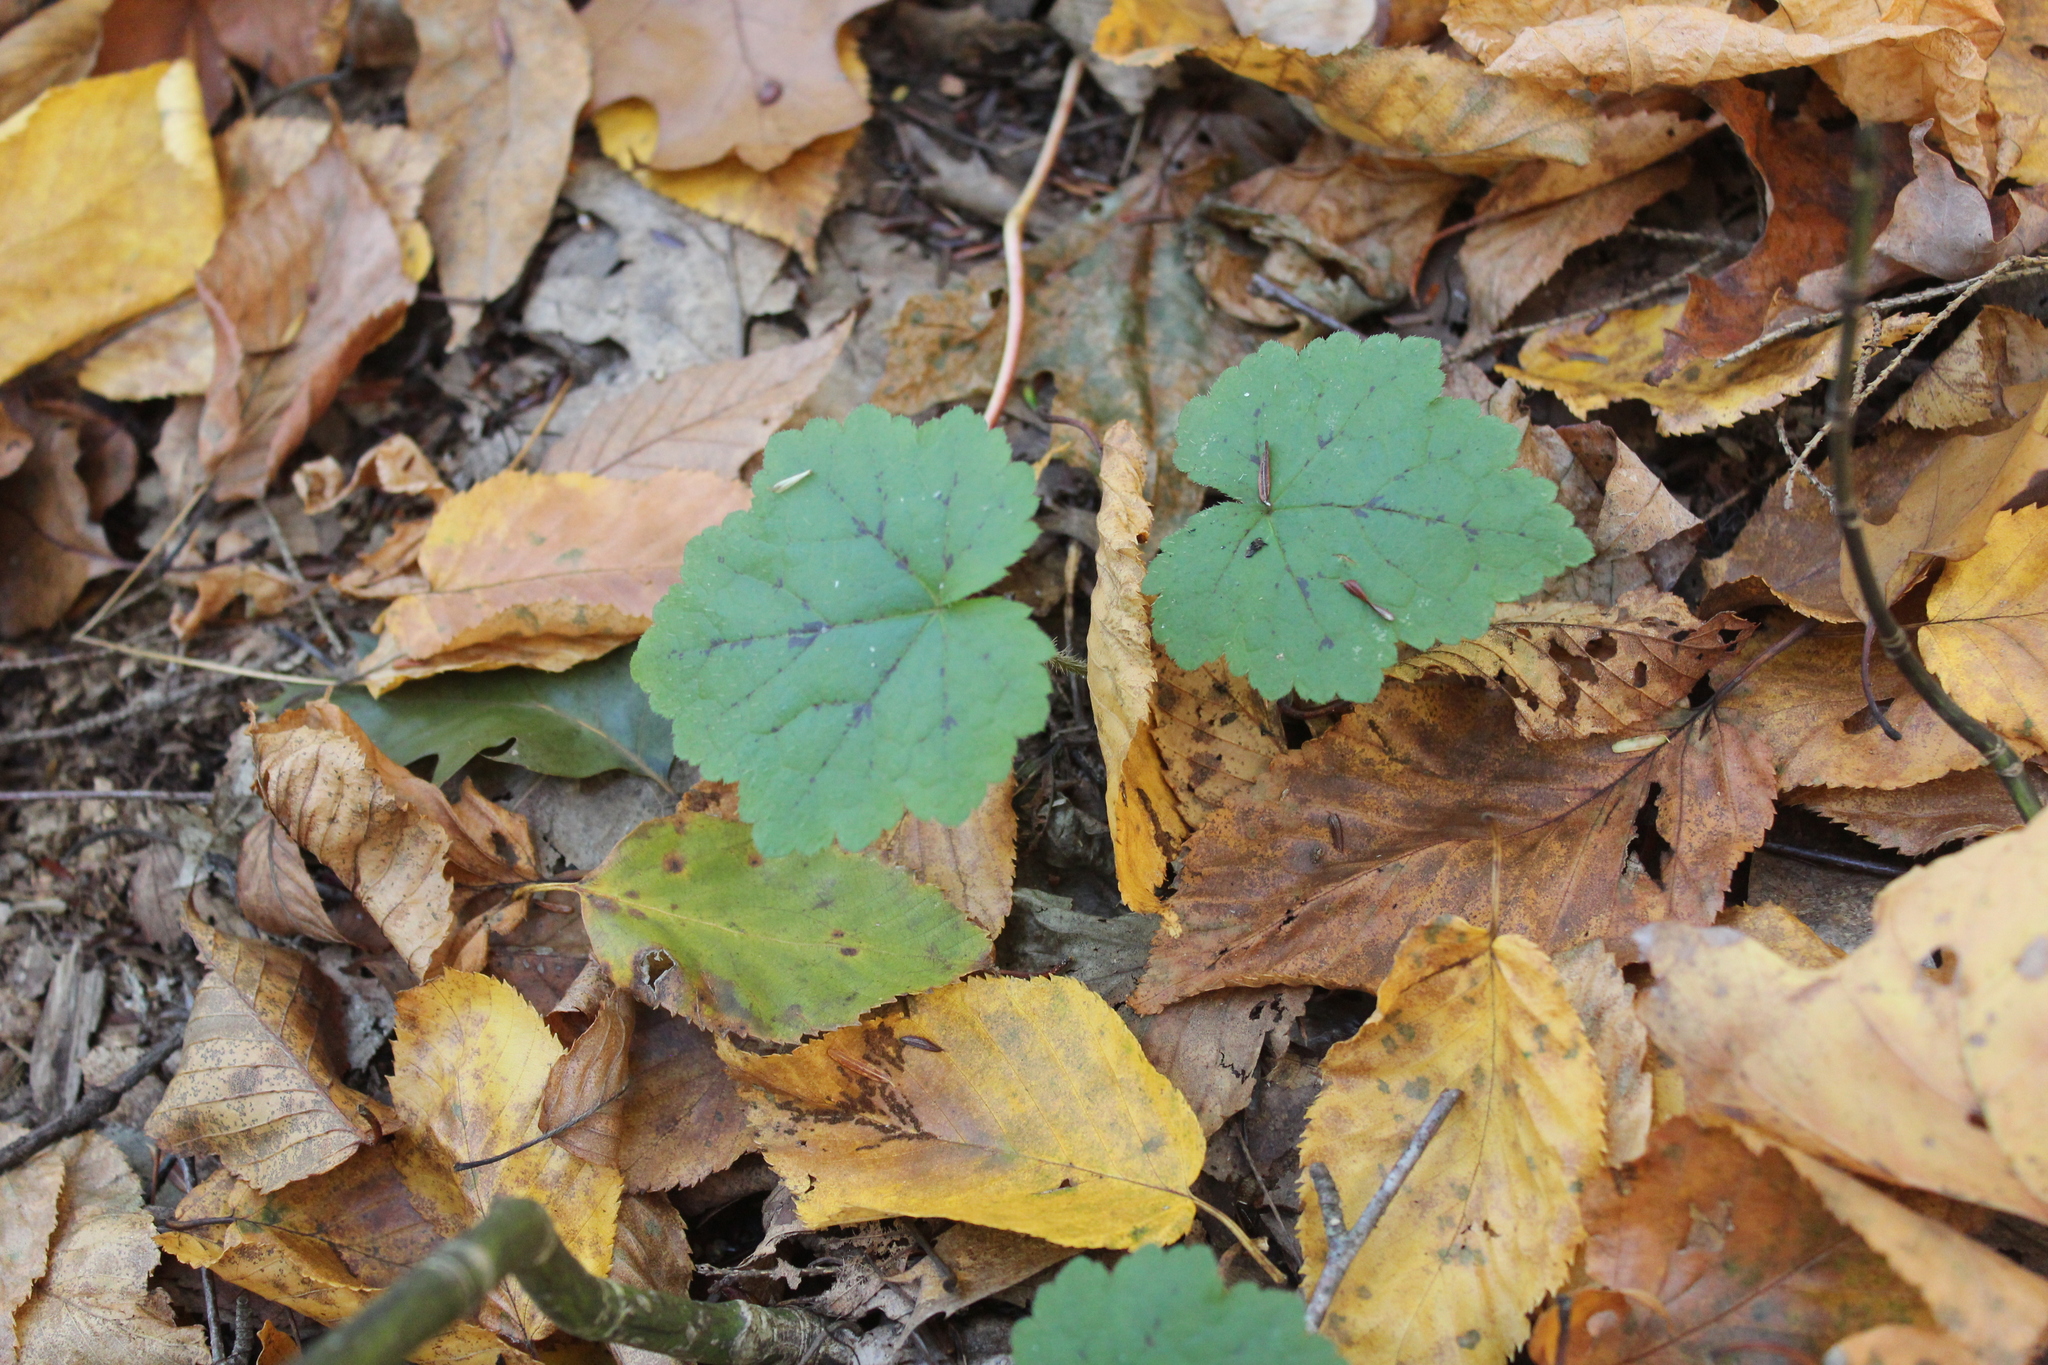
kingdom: Plantae
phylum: Tracheophyta
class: Magnoliopsida
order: Saxifragales
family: Saxifragaceae
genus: Tiarella
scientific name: Tiarella stolonifera
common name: Stoloniferous foamflower
